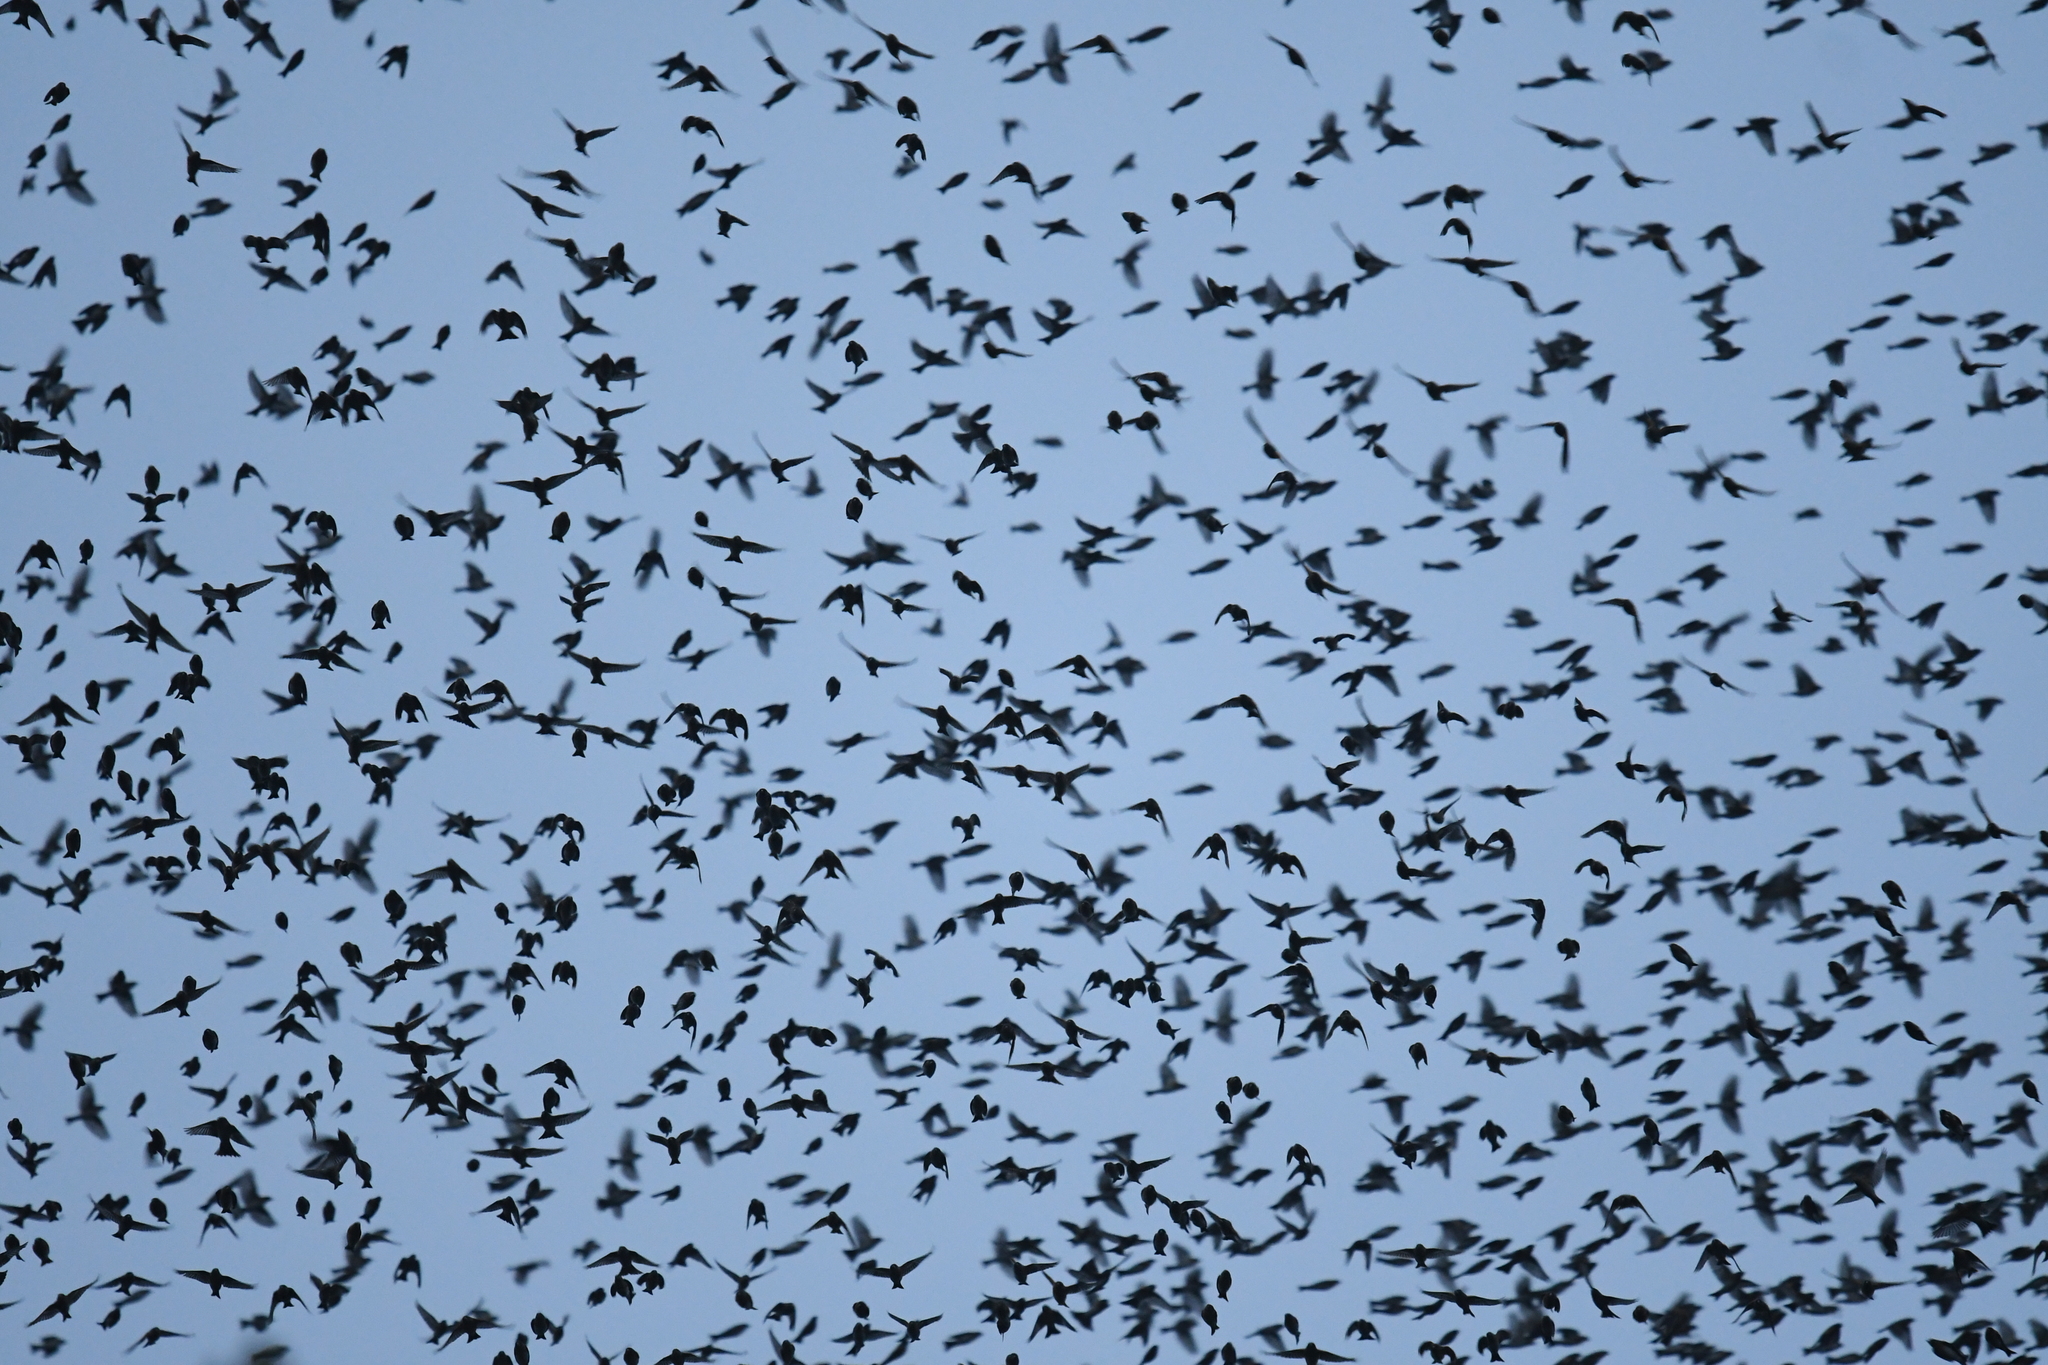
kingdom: Animalia
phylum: Chordata
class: Aves
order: Passeriformes
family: Fringillidae
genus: Fringilla
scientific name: Fringilla montifringilla
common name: Brambling
